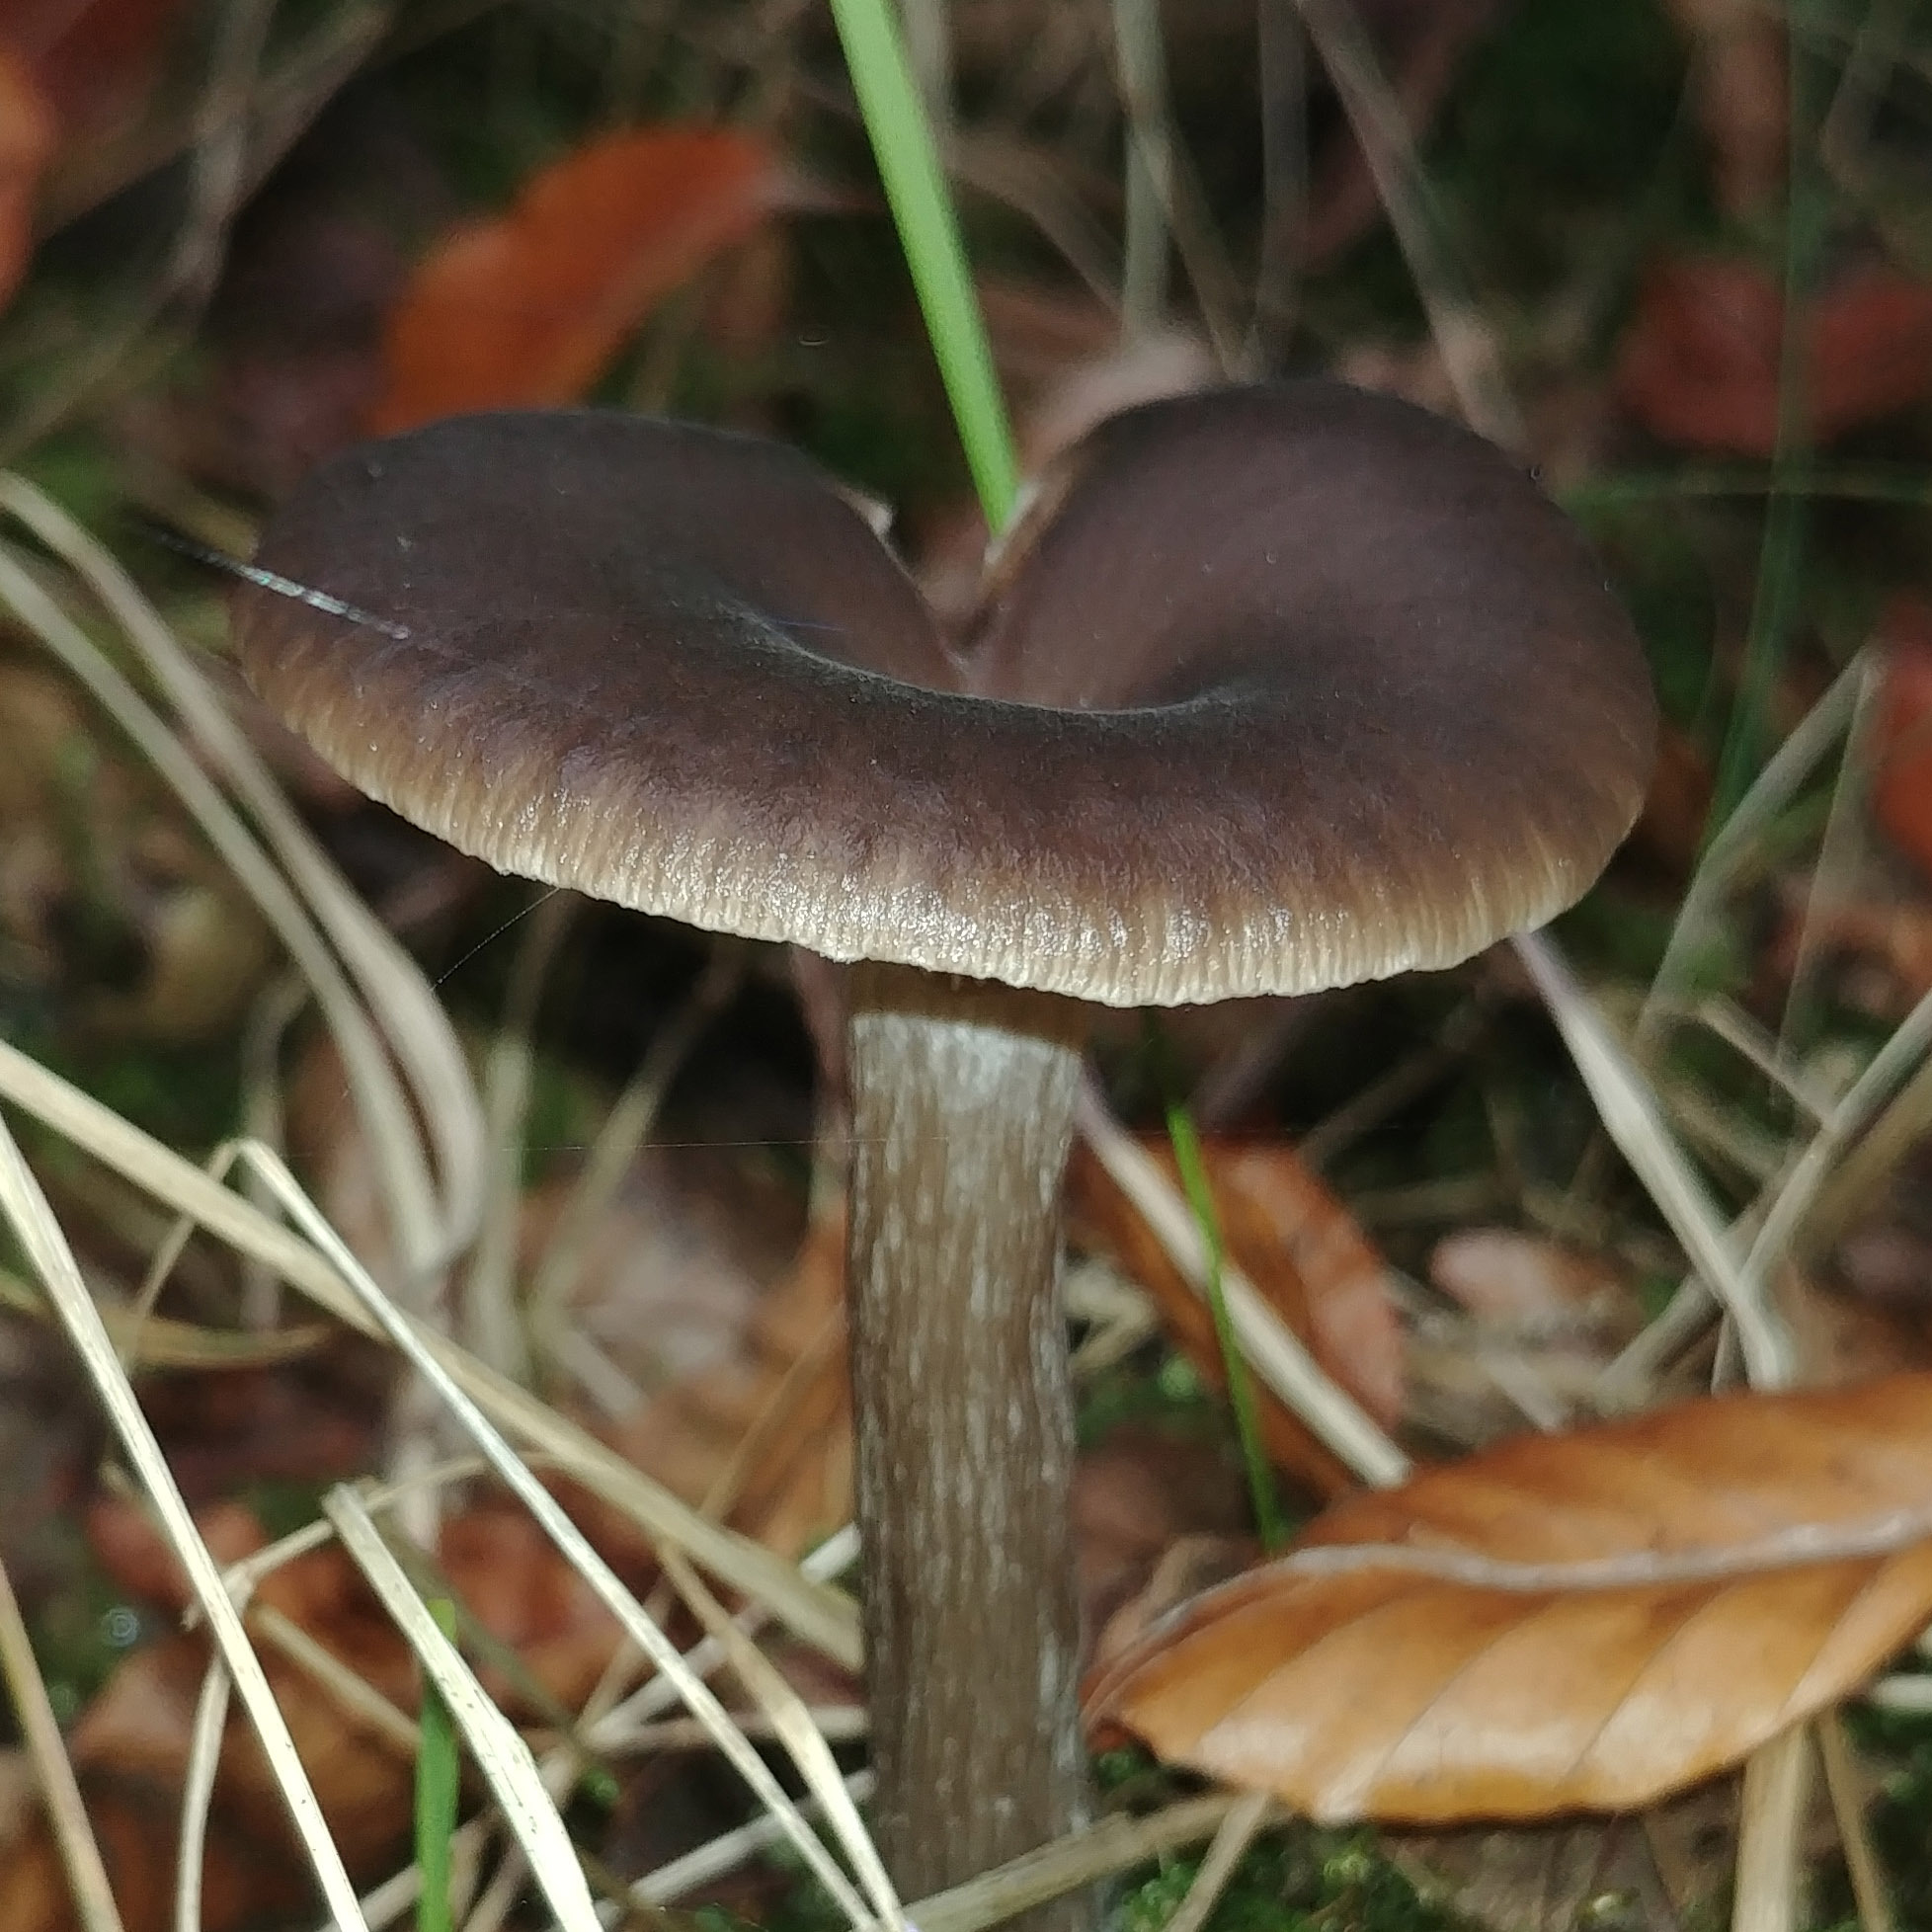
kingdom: Fungi
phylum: Basidiomycota
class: Agaricomycetes
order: Agaricales
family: Pseudoclitocybaceae
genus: Pseudoclitocybe
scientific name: Pseudoclitocybe cyathiformis
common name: Goblet
